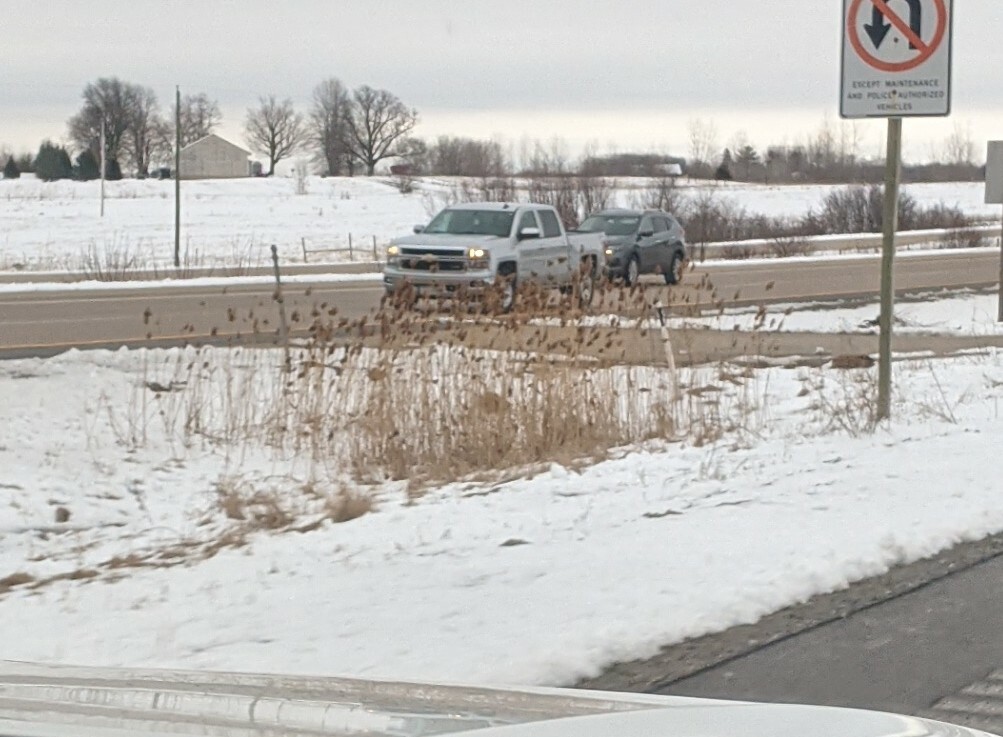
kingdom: Plantae
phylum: Tracheophyta
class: Liliopsida
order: Poales
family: Poaceae
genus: Phragmites
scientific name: Phragmites australis
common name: Common reed
